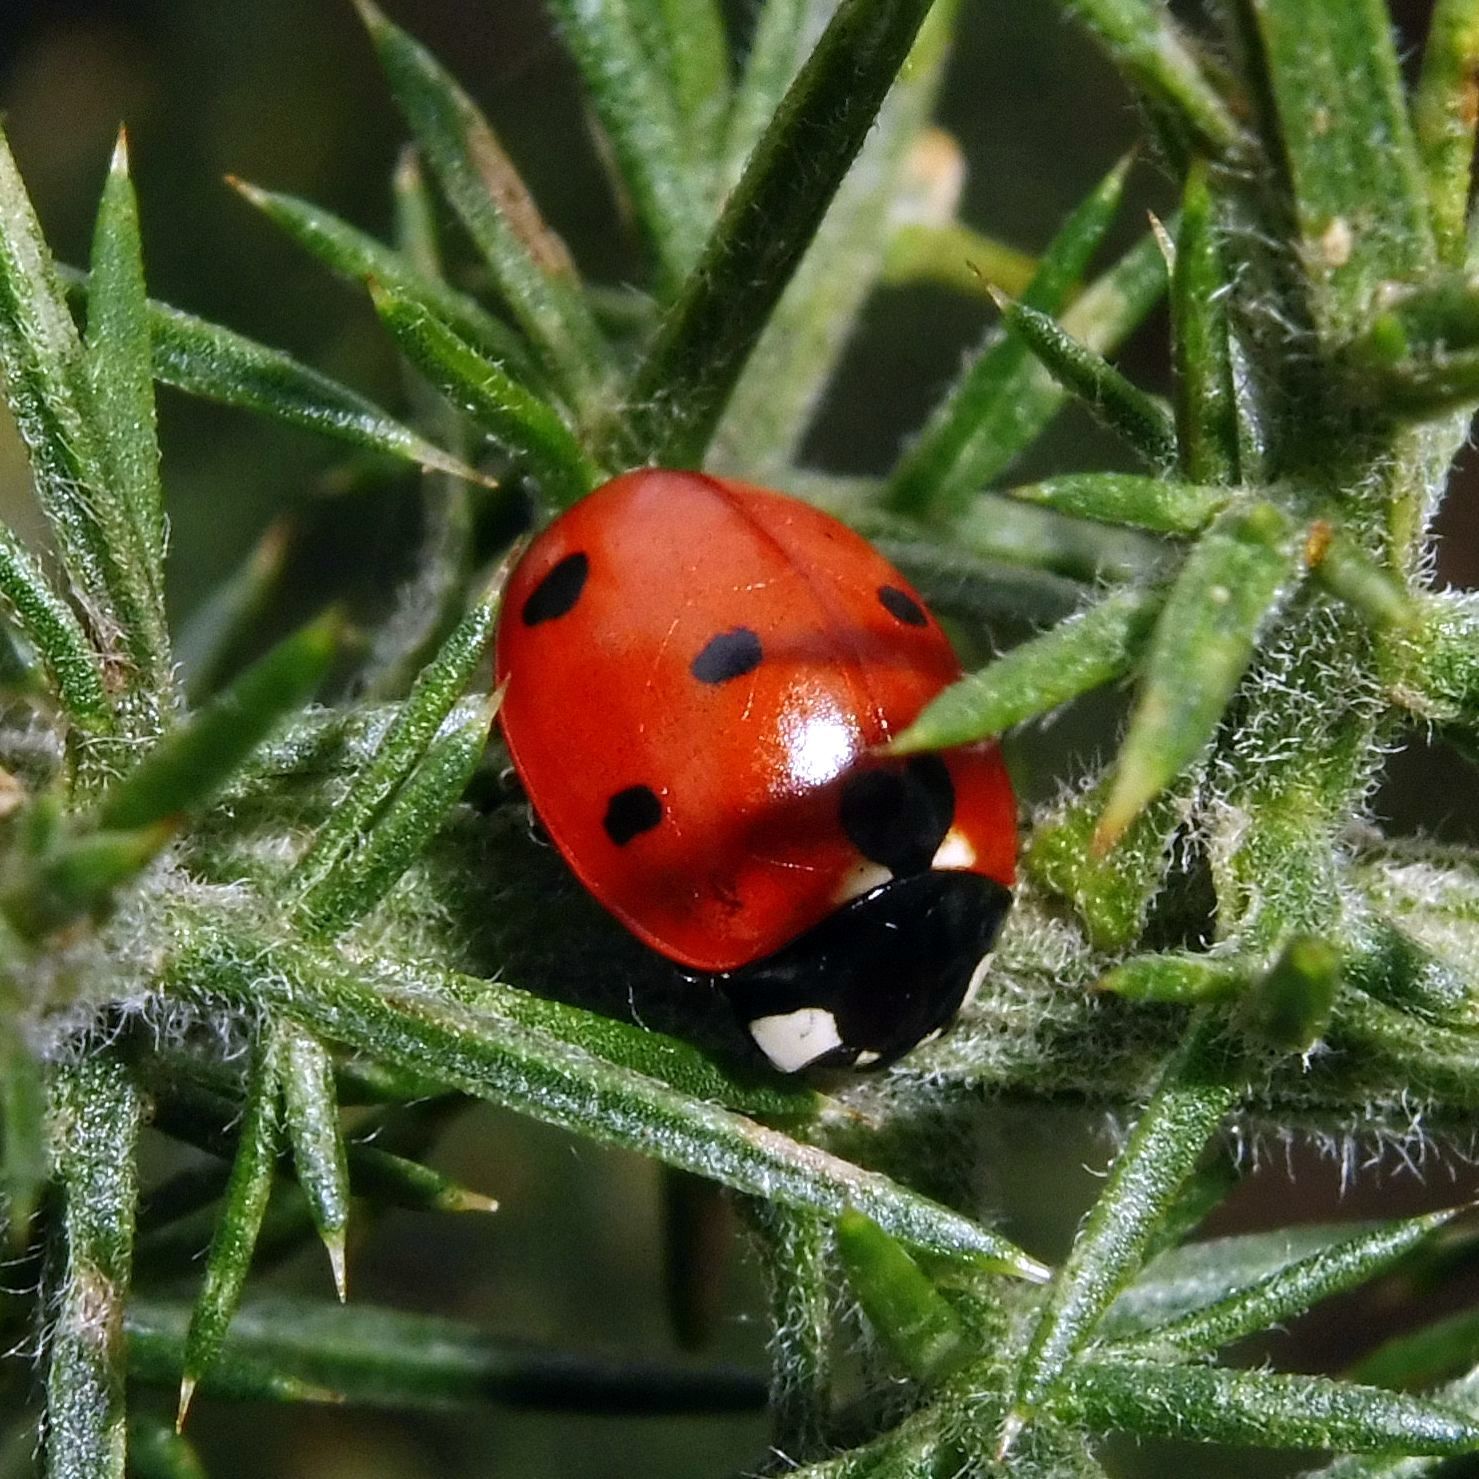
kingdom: Animalia
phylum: Arthropoda
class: Insecta
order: Coleoptera
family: Coccinellidae
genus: Coccinella
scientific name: Coccinella septempunctata
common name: Sevenspotted lady beetle
